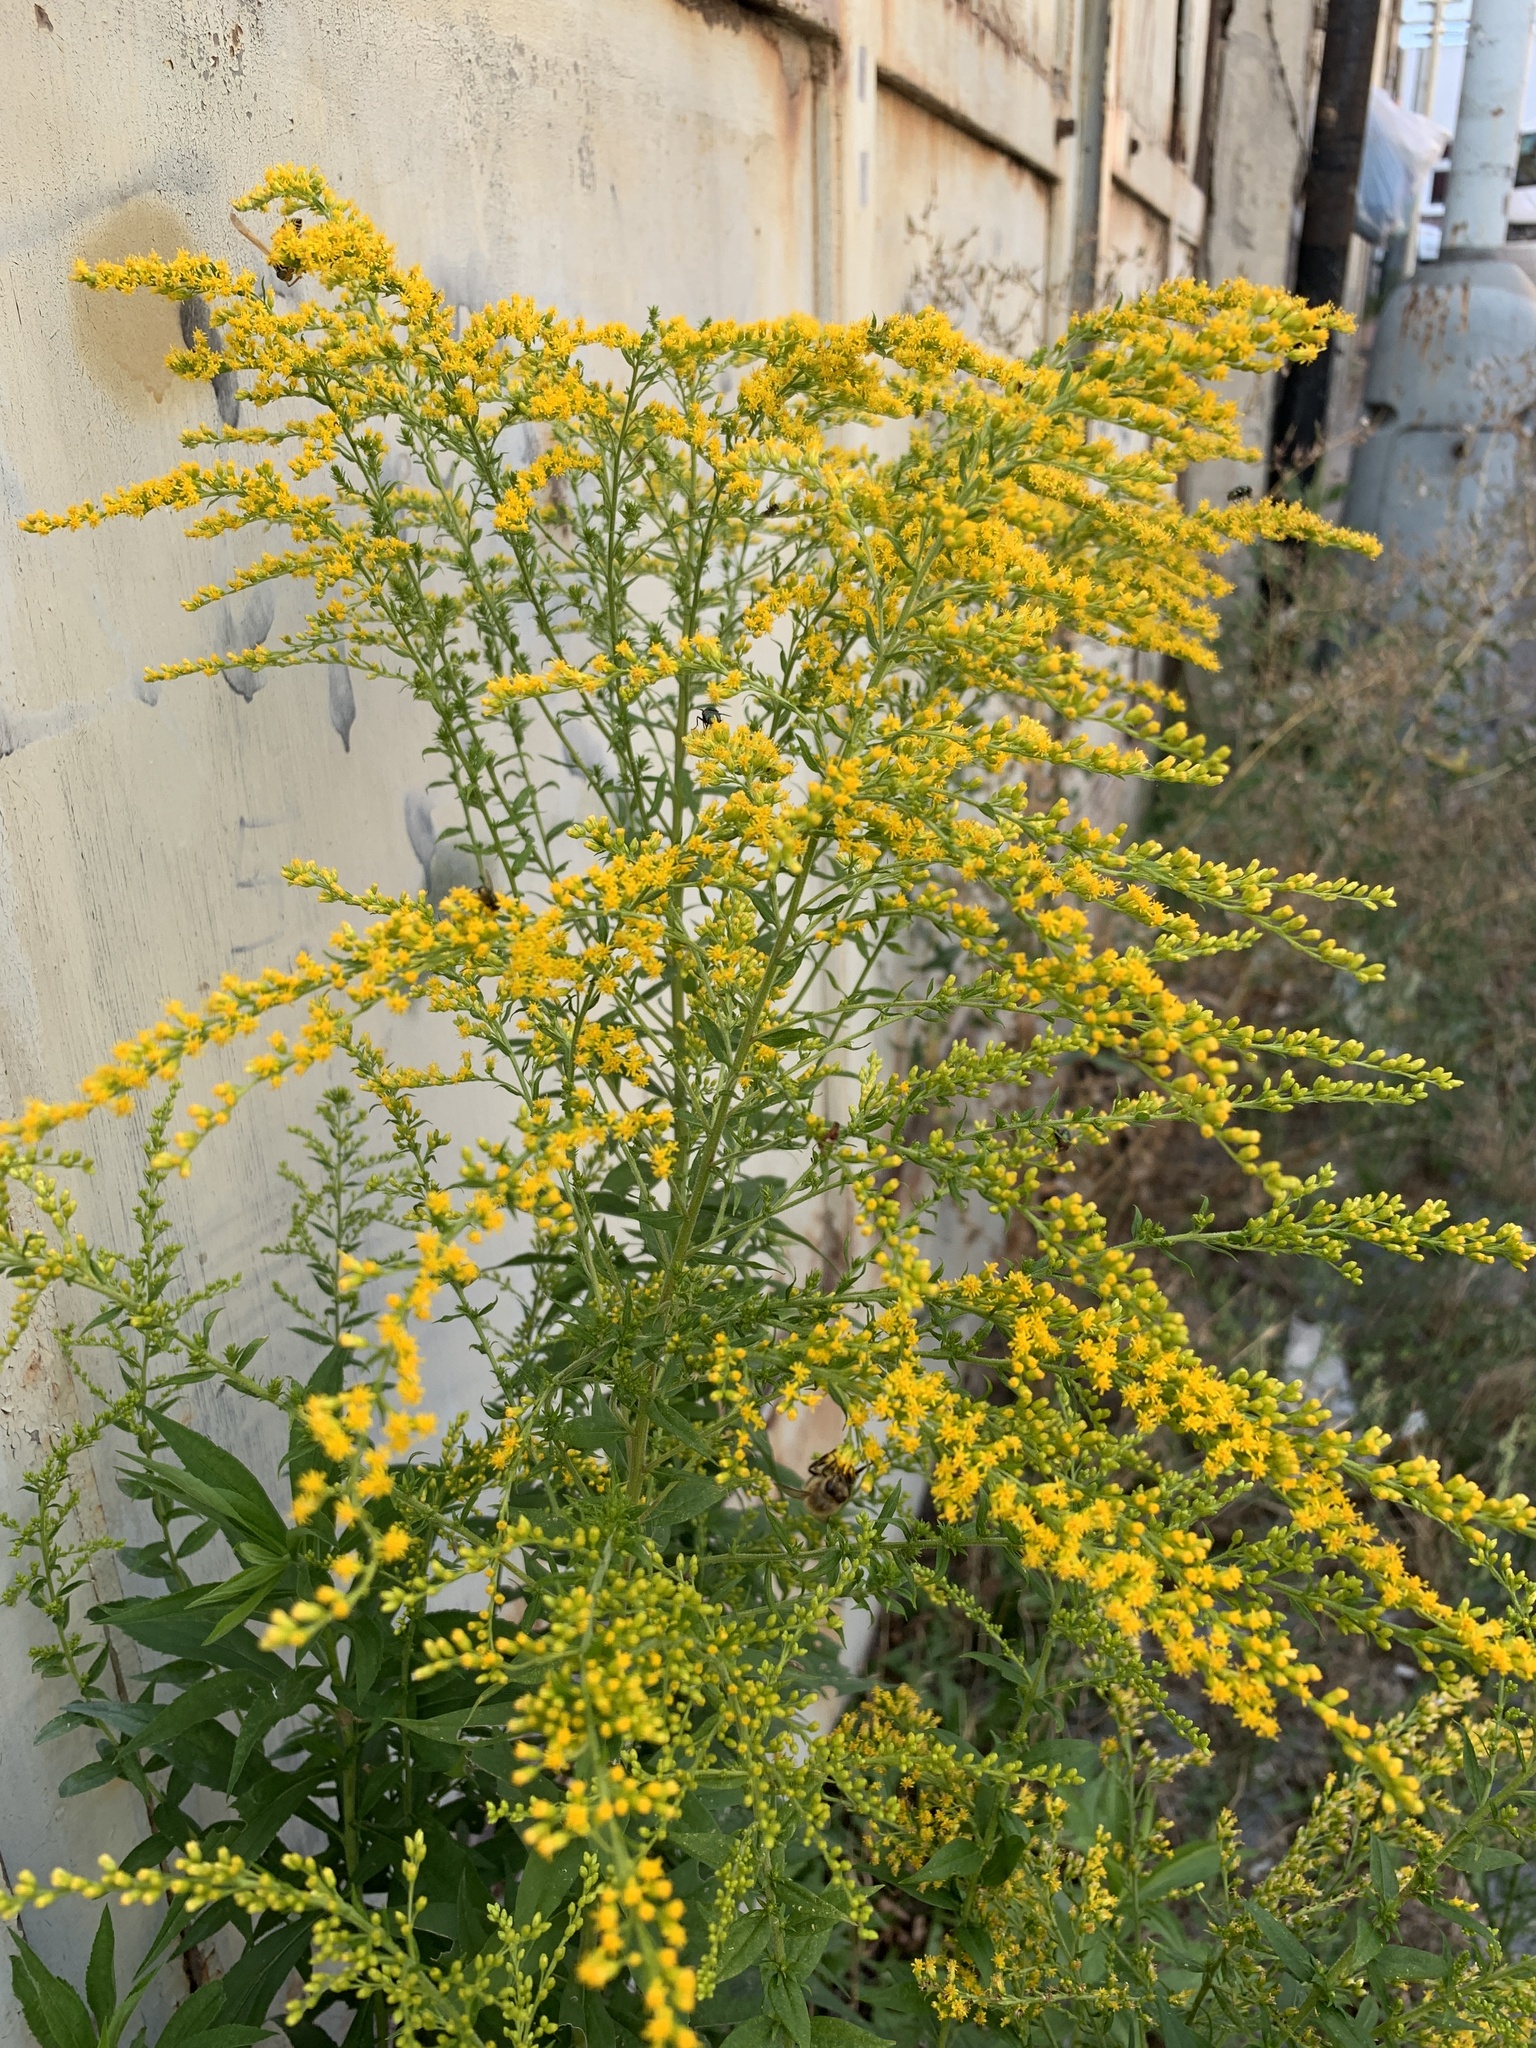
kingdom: Plantae
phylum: Tracheophyta
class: Magnoliopsida
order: Asterales
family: Asteraceae
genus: Solidago
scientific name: Solidago canadensis
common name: Canada goldenrod
